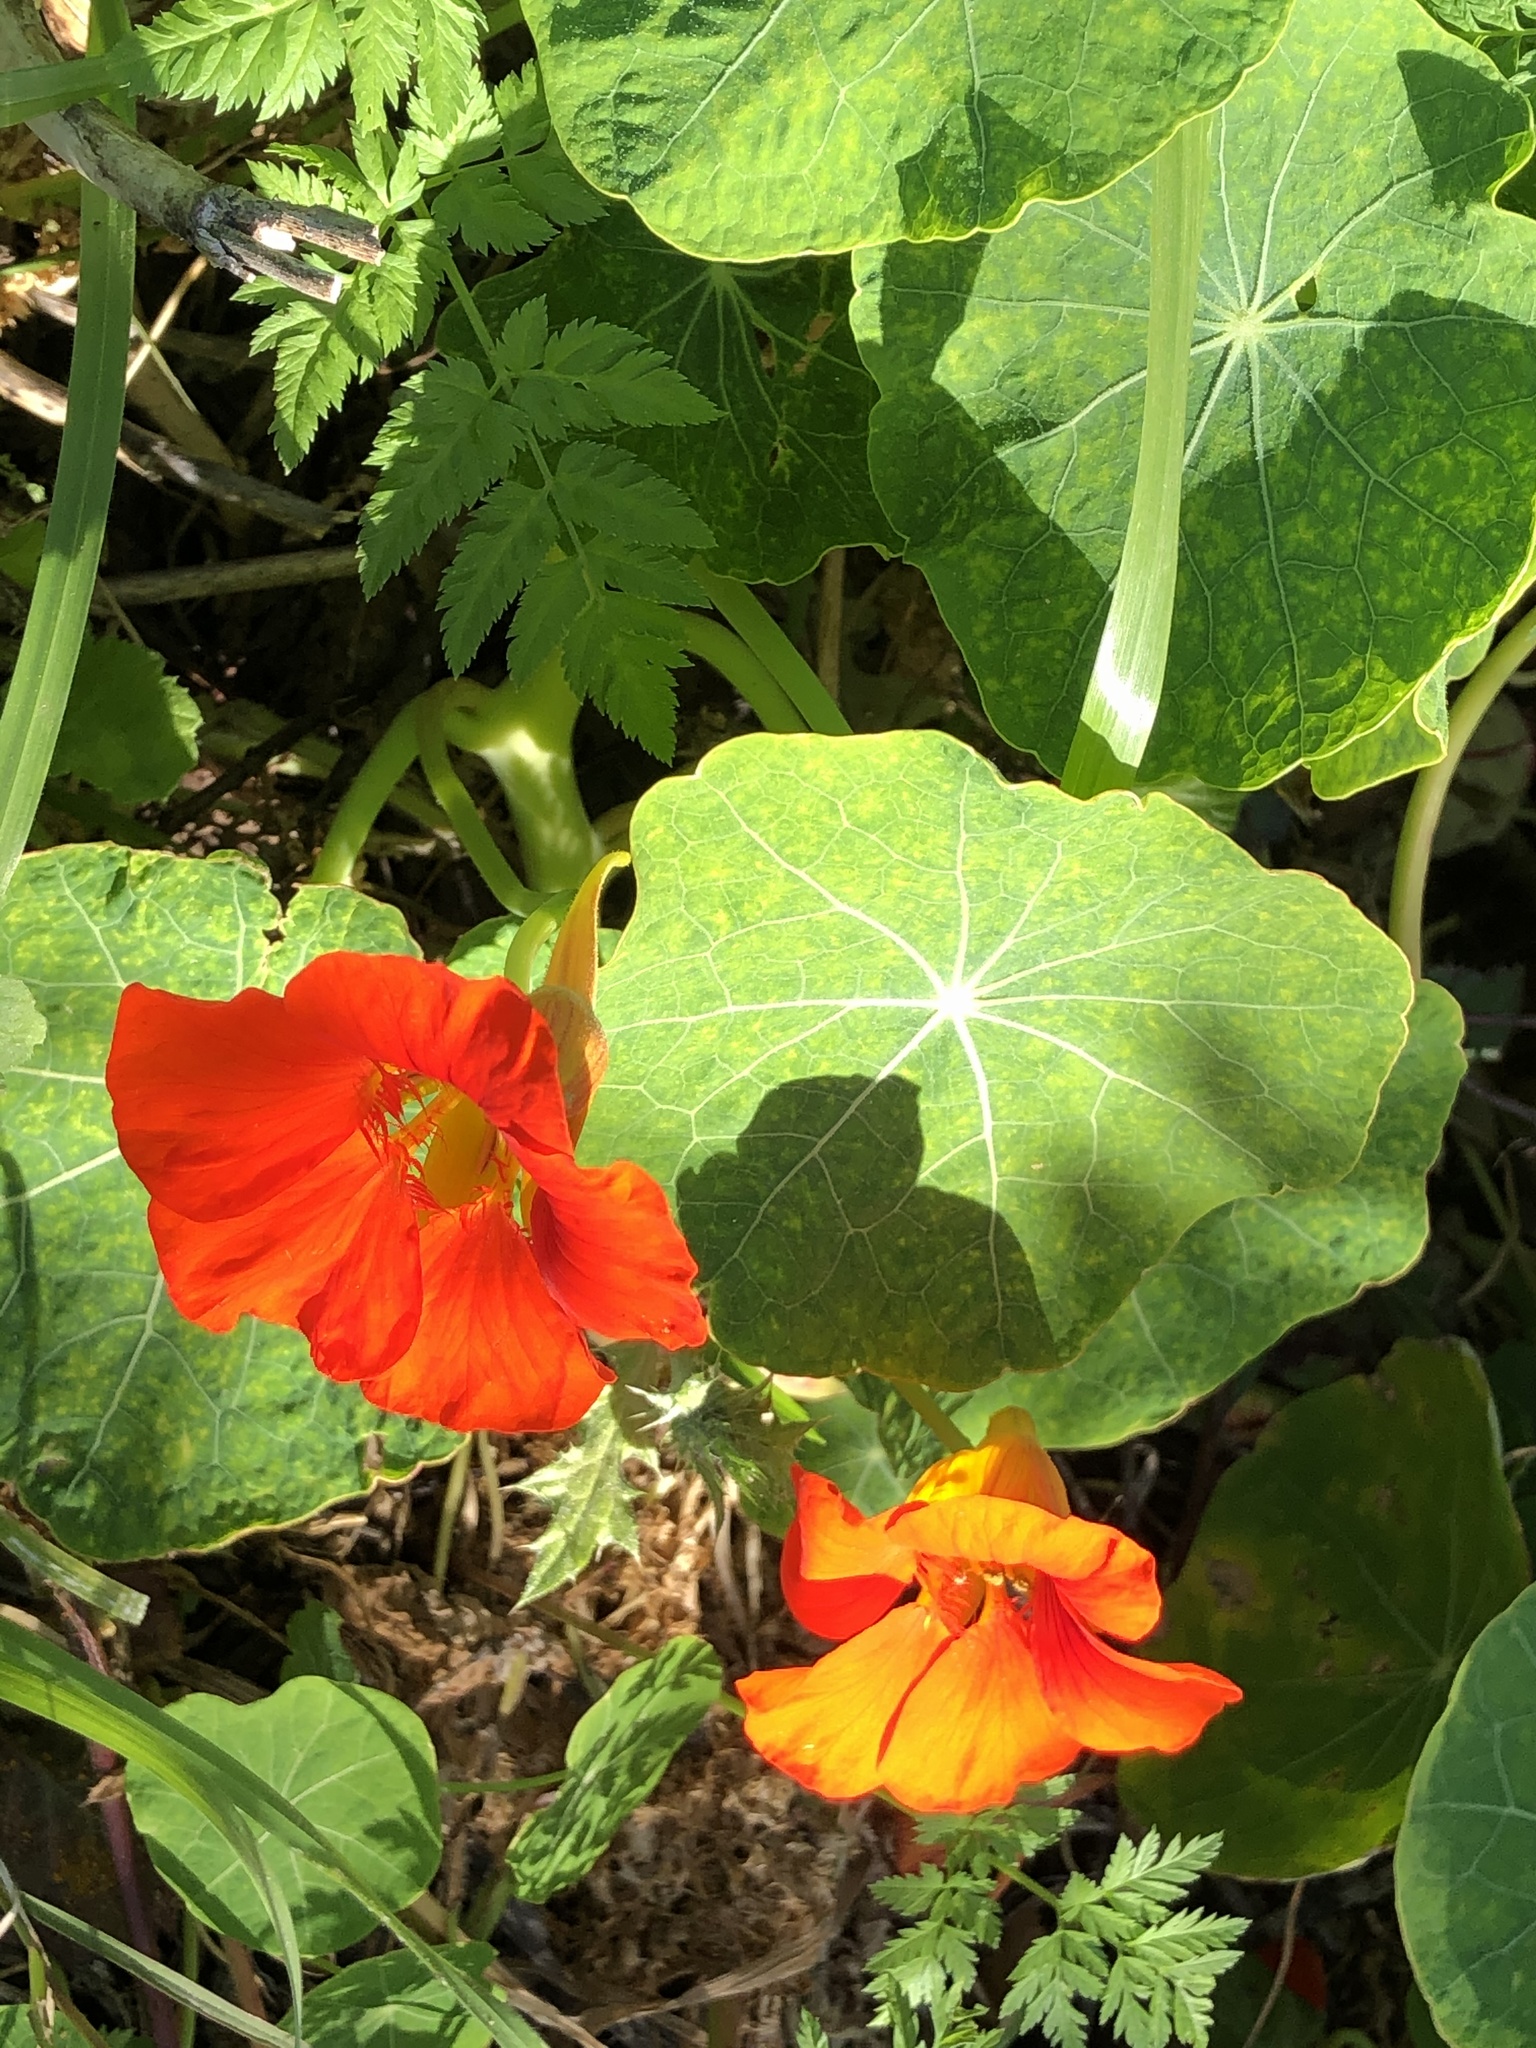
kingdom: Plantae
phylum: Tracheophyta
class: Magnoliopsida
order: Brassicales
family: Tropaeolaceae
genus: Tropaeolum
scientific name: Tropaeolum majus
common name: Nasturtium
